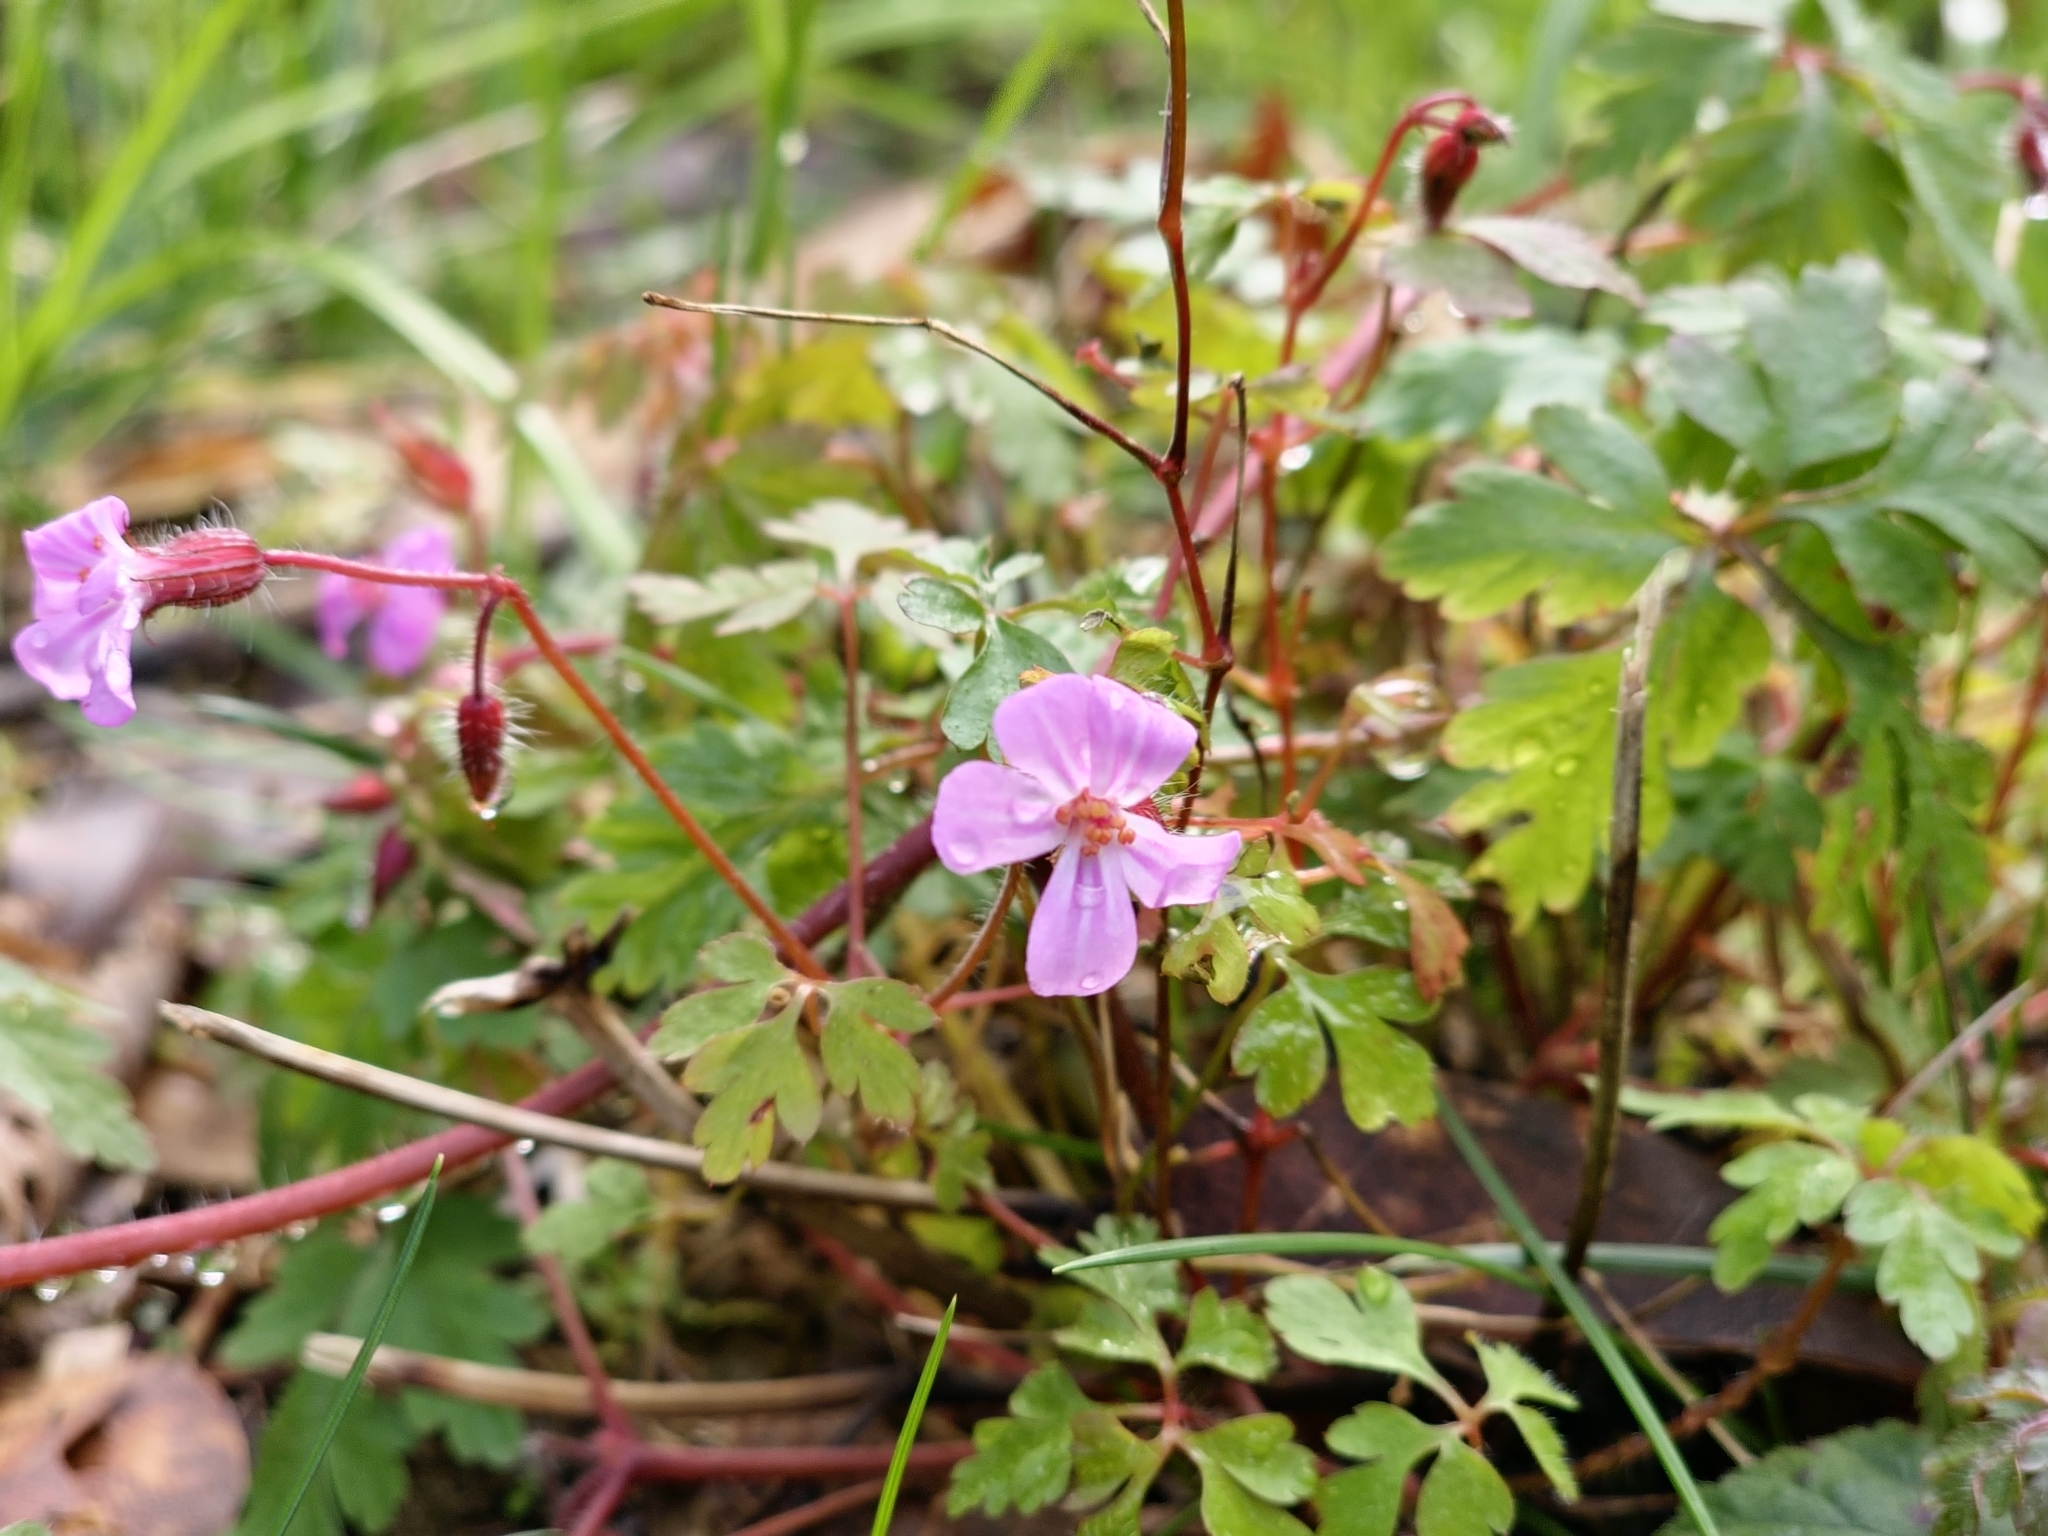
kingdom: Plantae
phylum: Tracheophyta
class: Magnoliopsida
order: Geraniales
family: Geraniaceae
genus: Geranium
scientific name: Geranium robertianum
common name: Herb-robert
